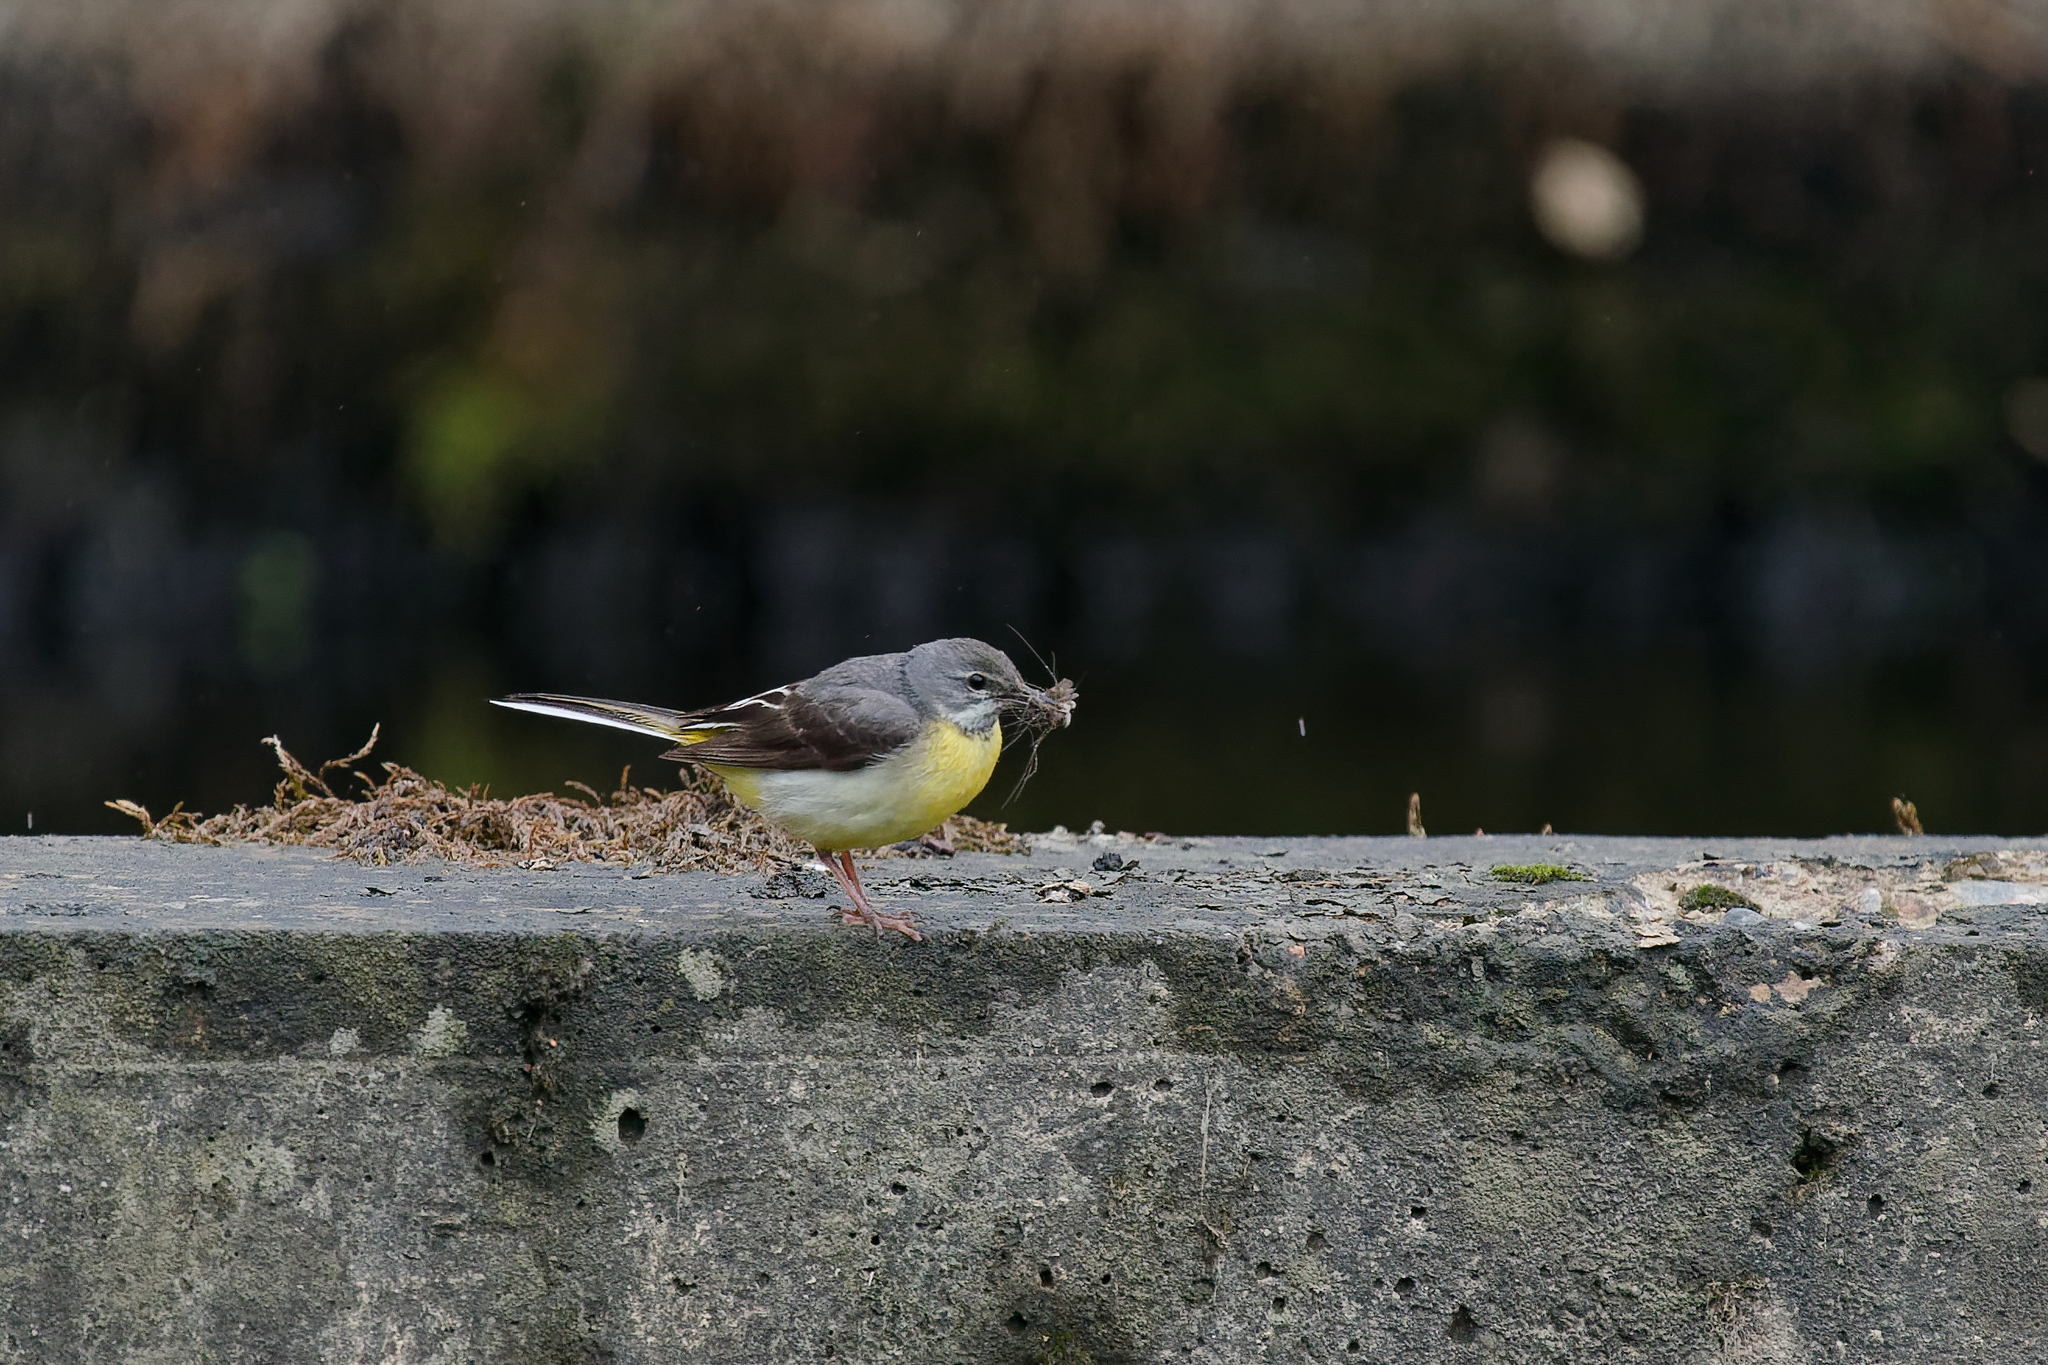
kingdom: Animalia
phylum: Chordata
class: Aves
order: Passeriformes
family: Motacillidae
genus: Motacilla
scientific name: Motacilla cinerea
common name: Grey wagtail
